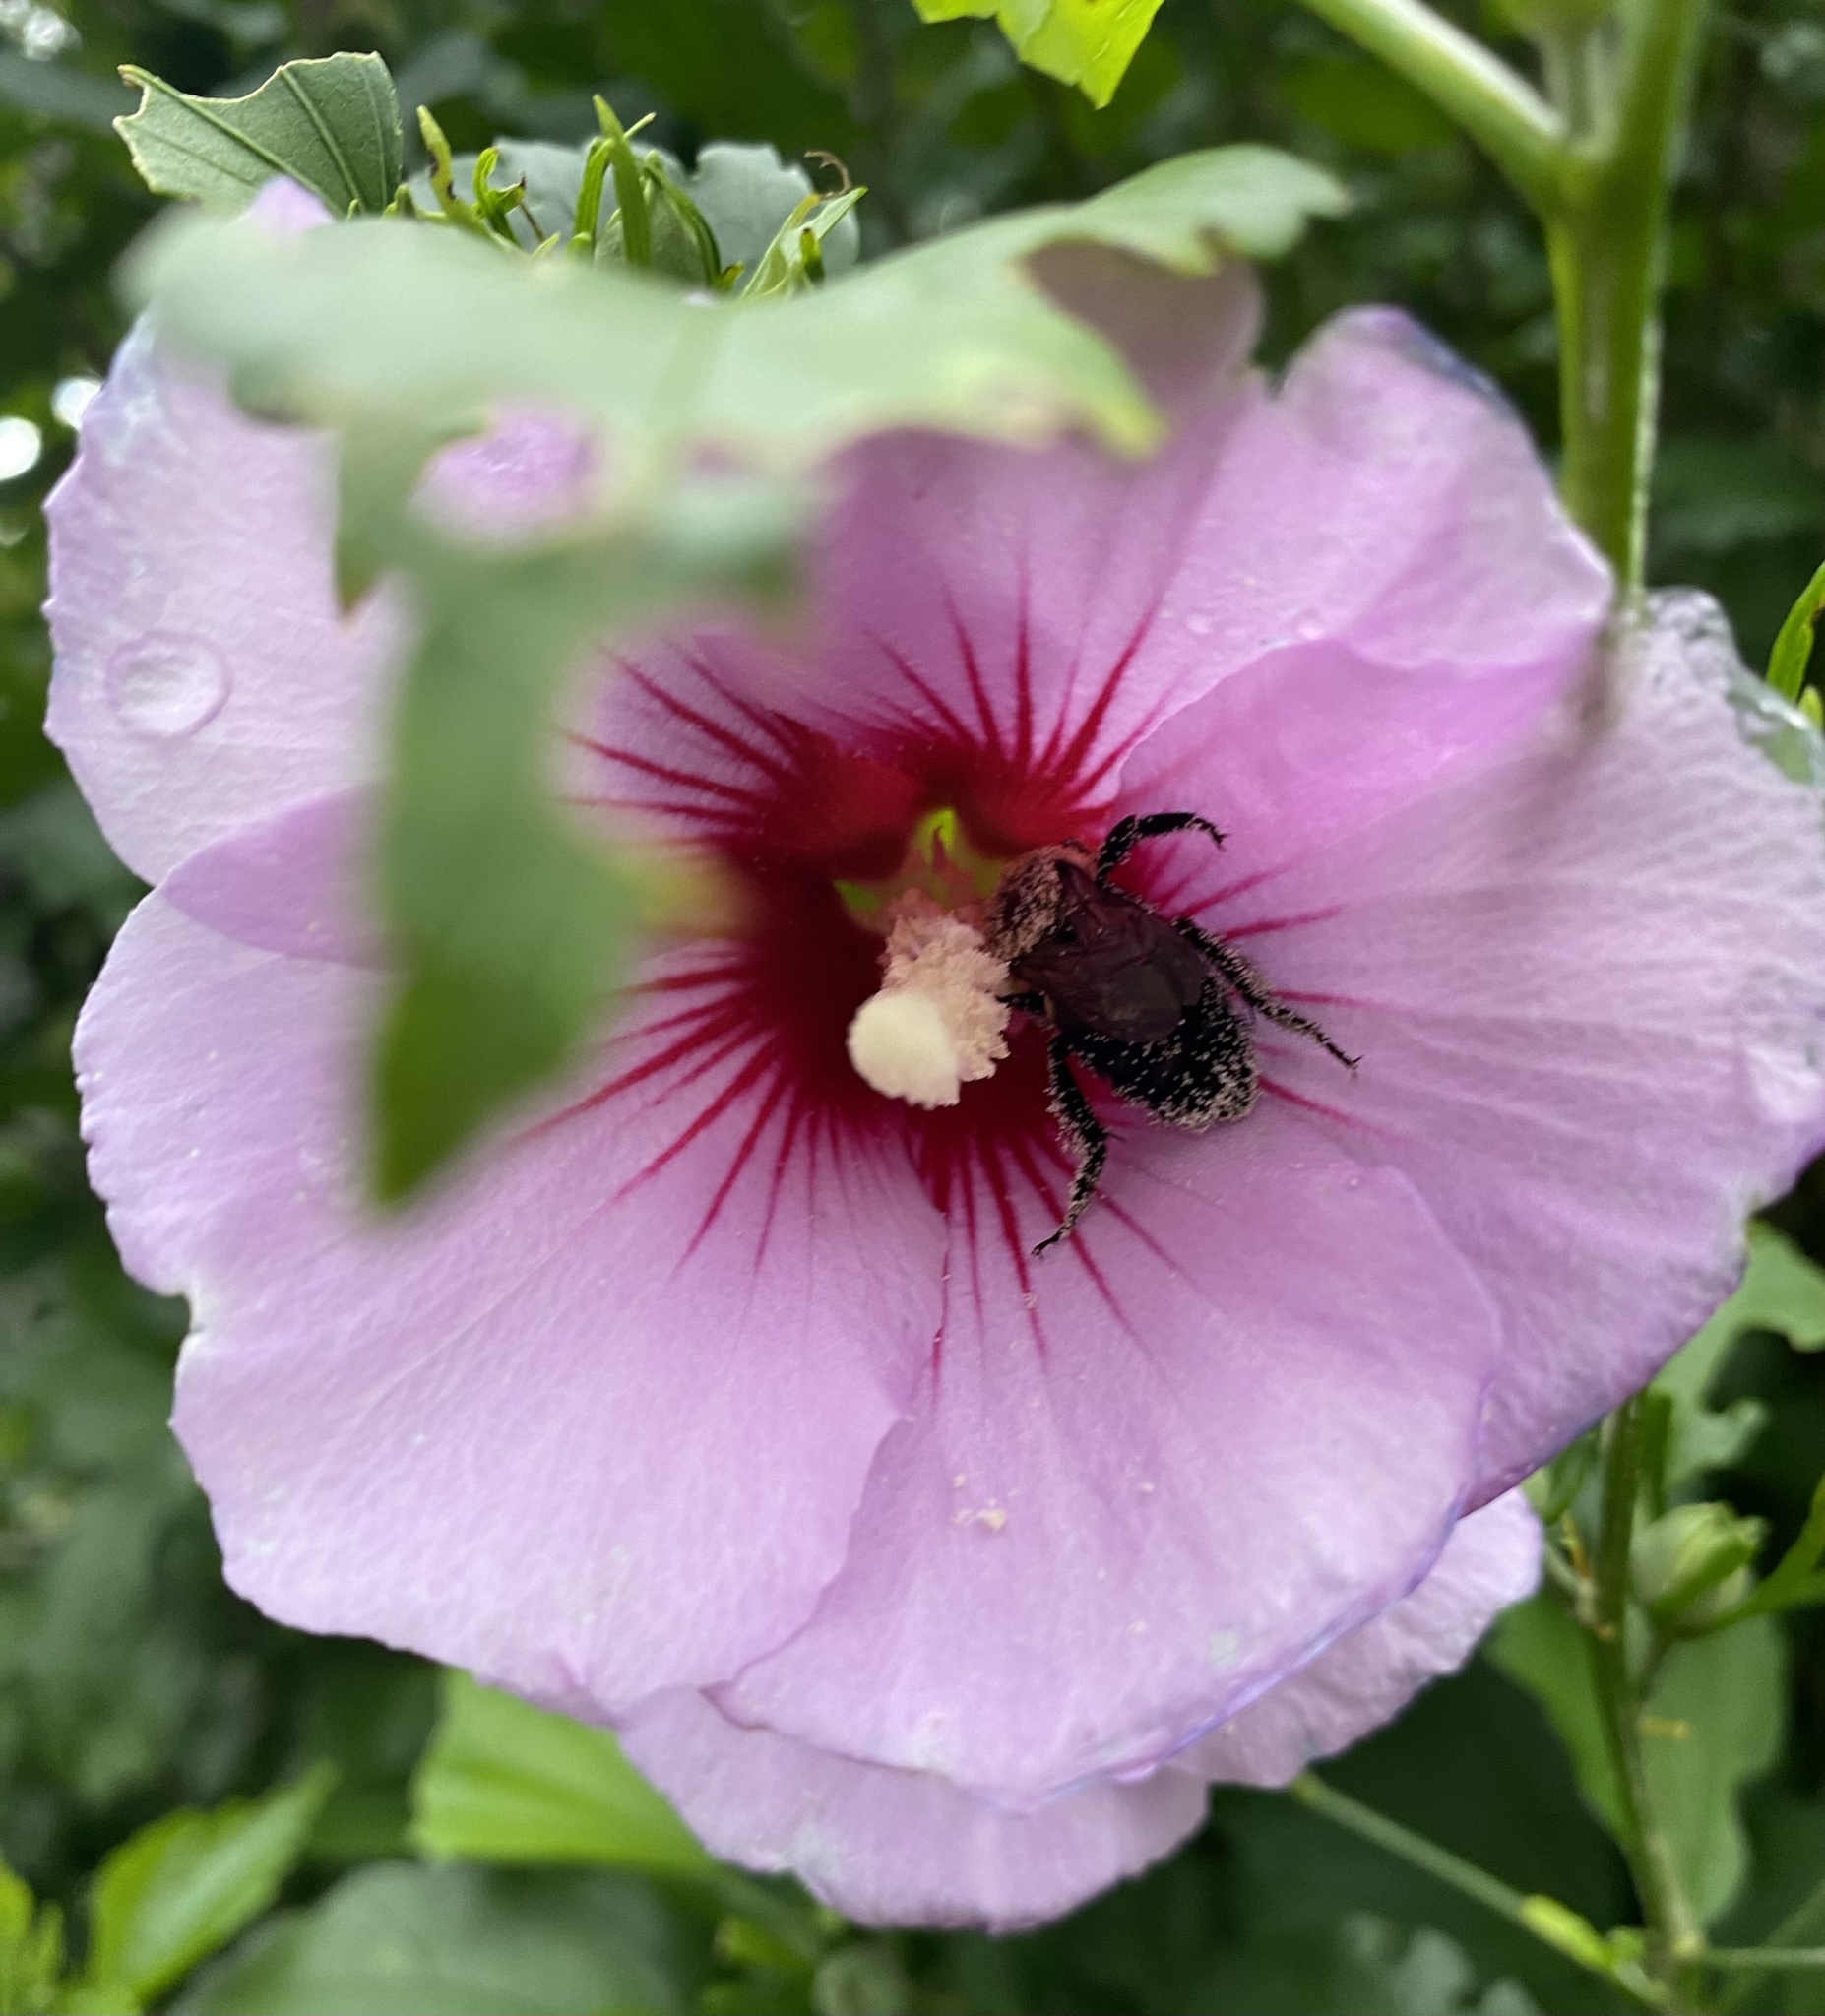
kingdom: Animalia
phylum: Arthropoda
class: Insecta
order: Hymenoptera
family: Apidae
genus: Bombus
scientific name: Bombus
